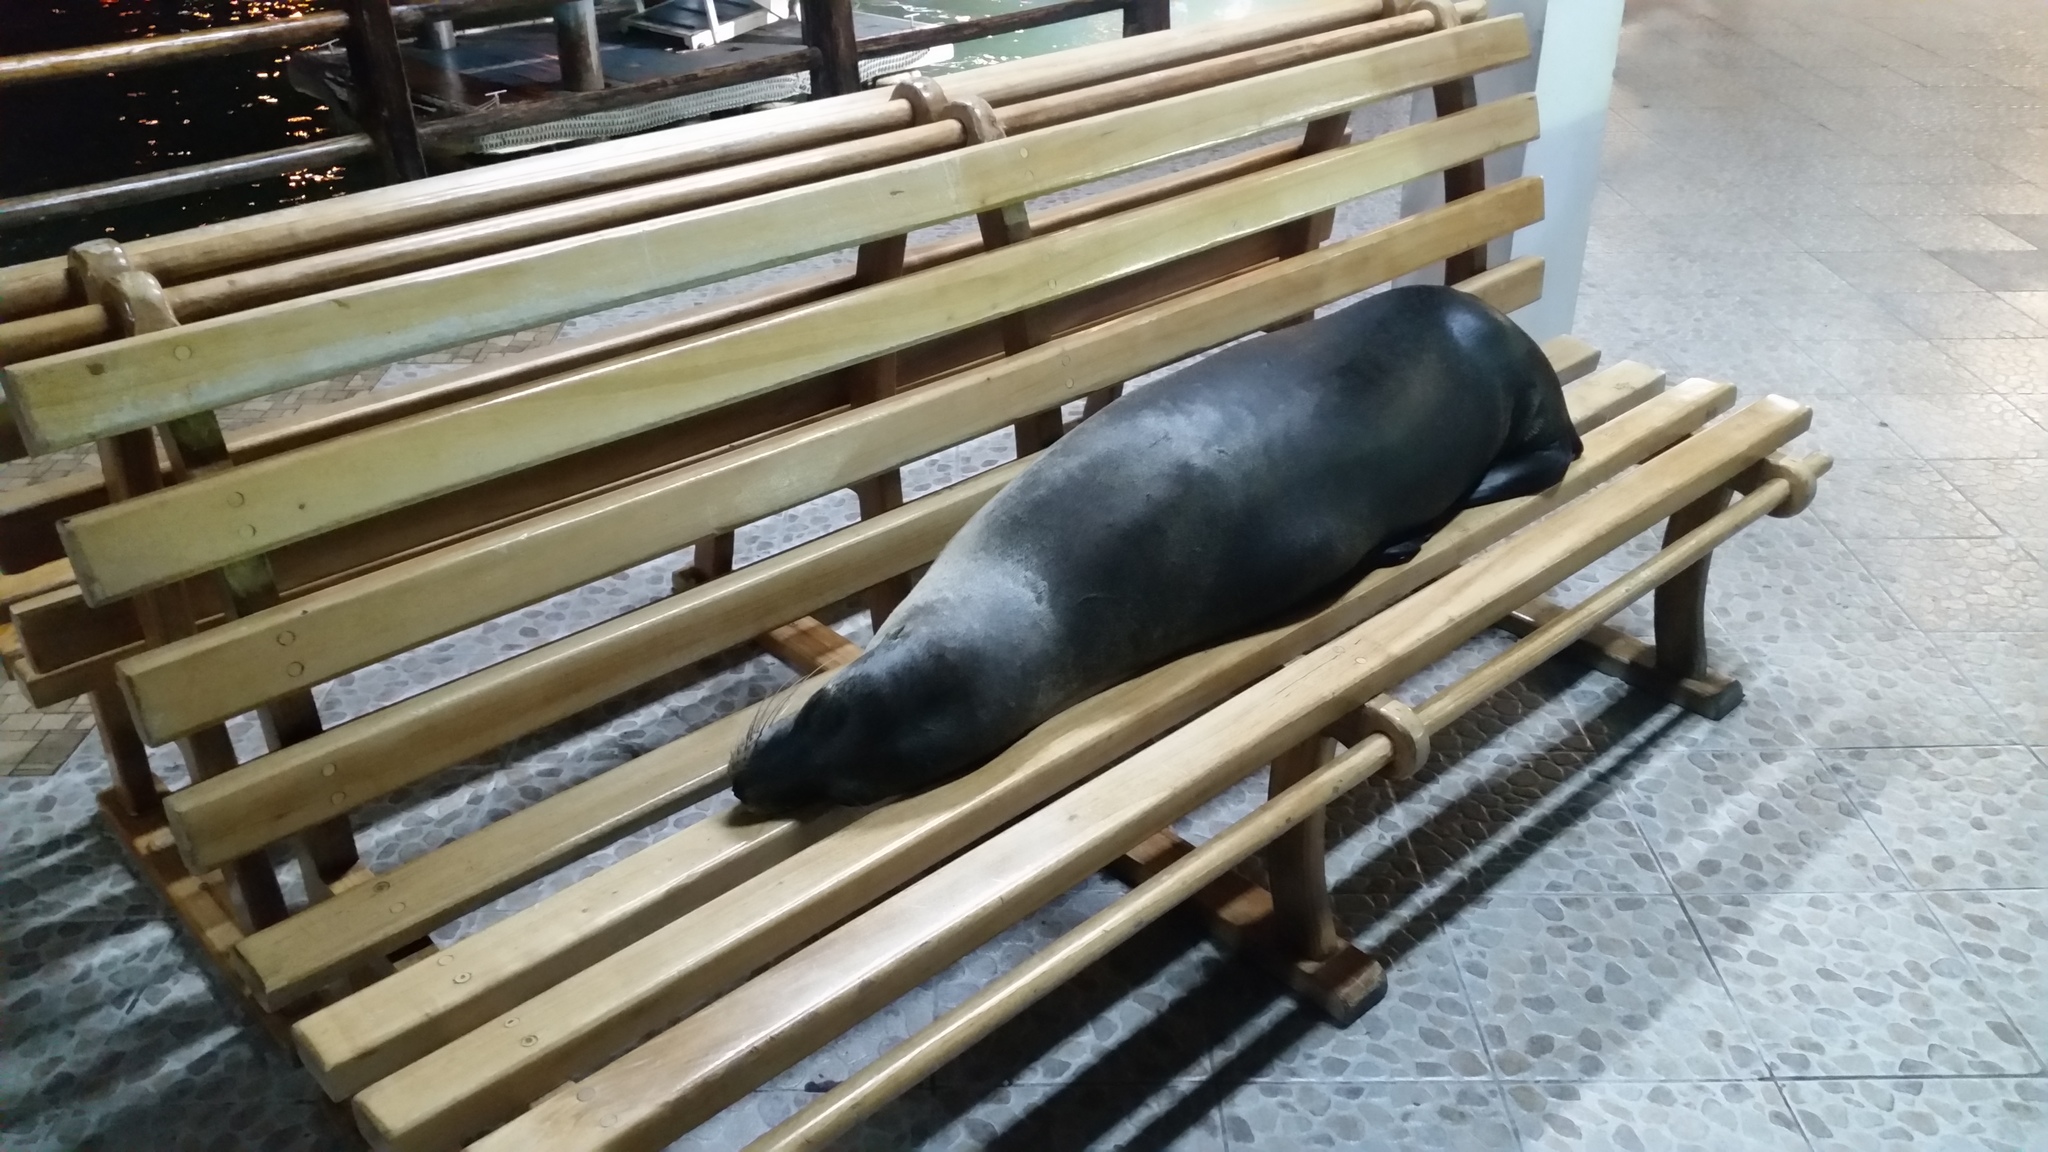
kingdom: Animalia
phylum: Chordata
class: Mammalia
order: Carnivora
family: Otariidae
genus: Zalophus
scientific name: Zalophus wollebaeki
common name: Galapagos sea lion
